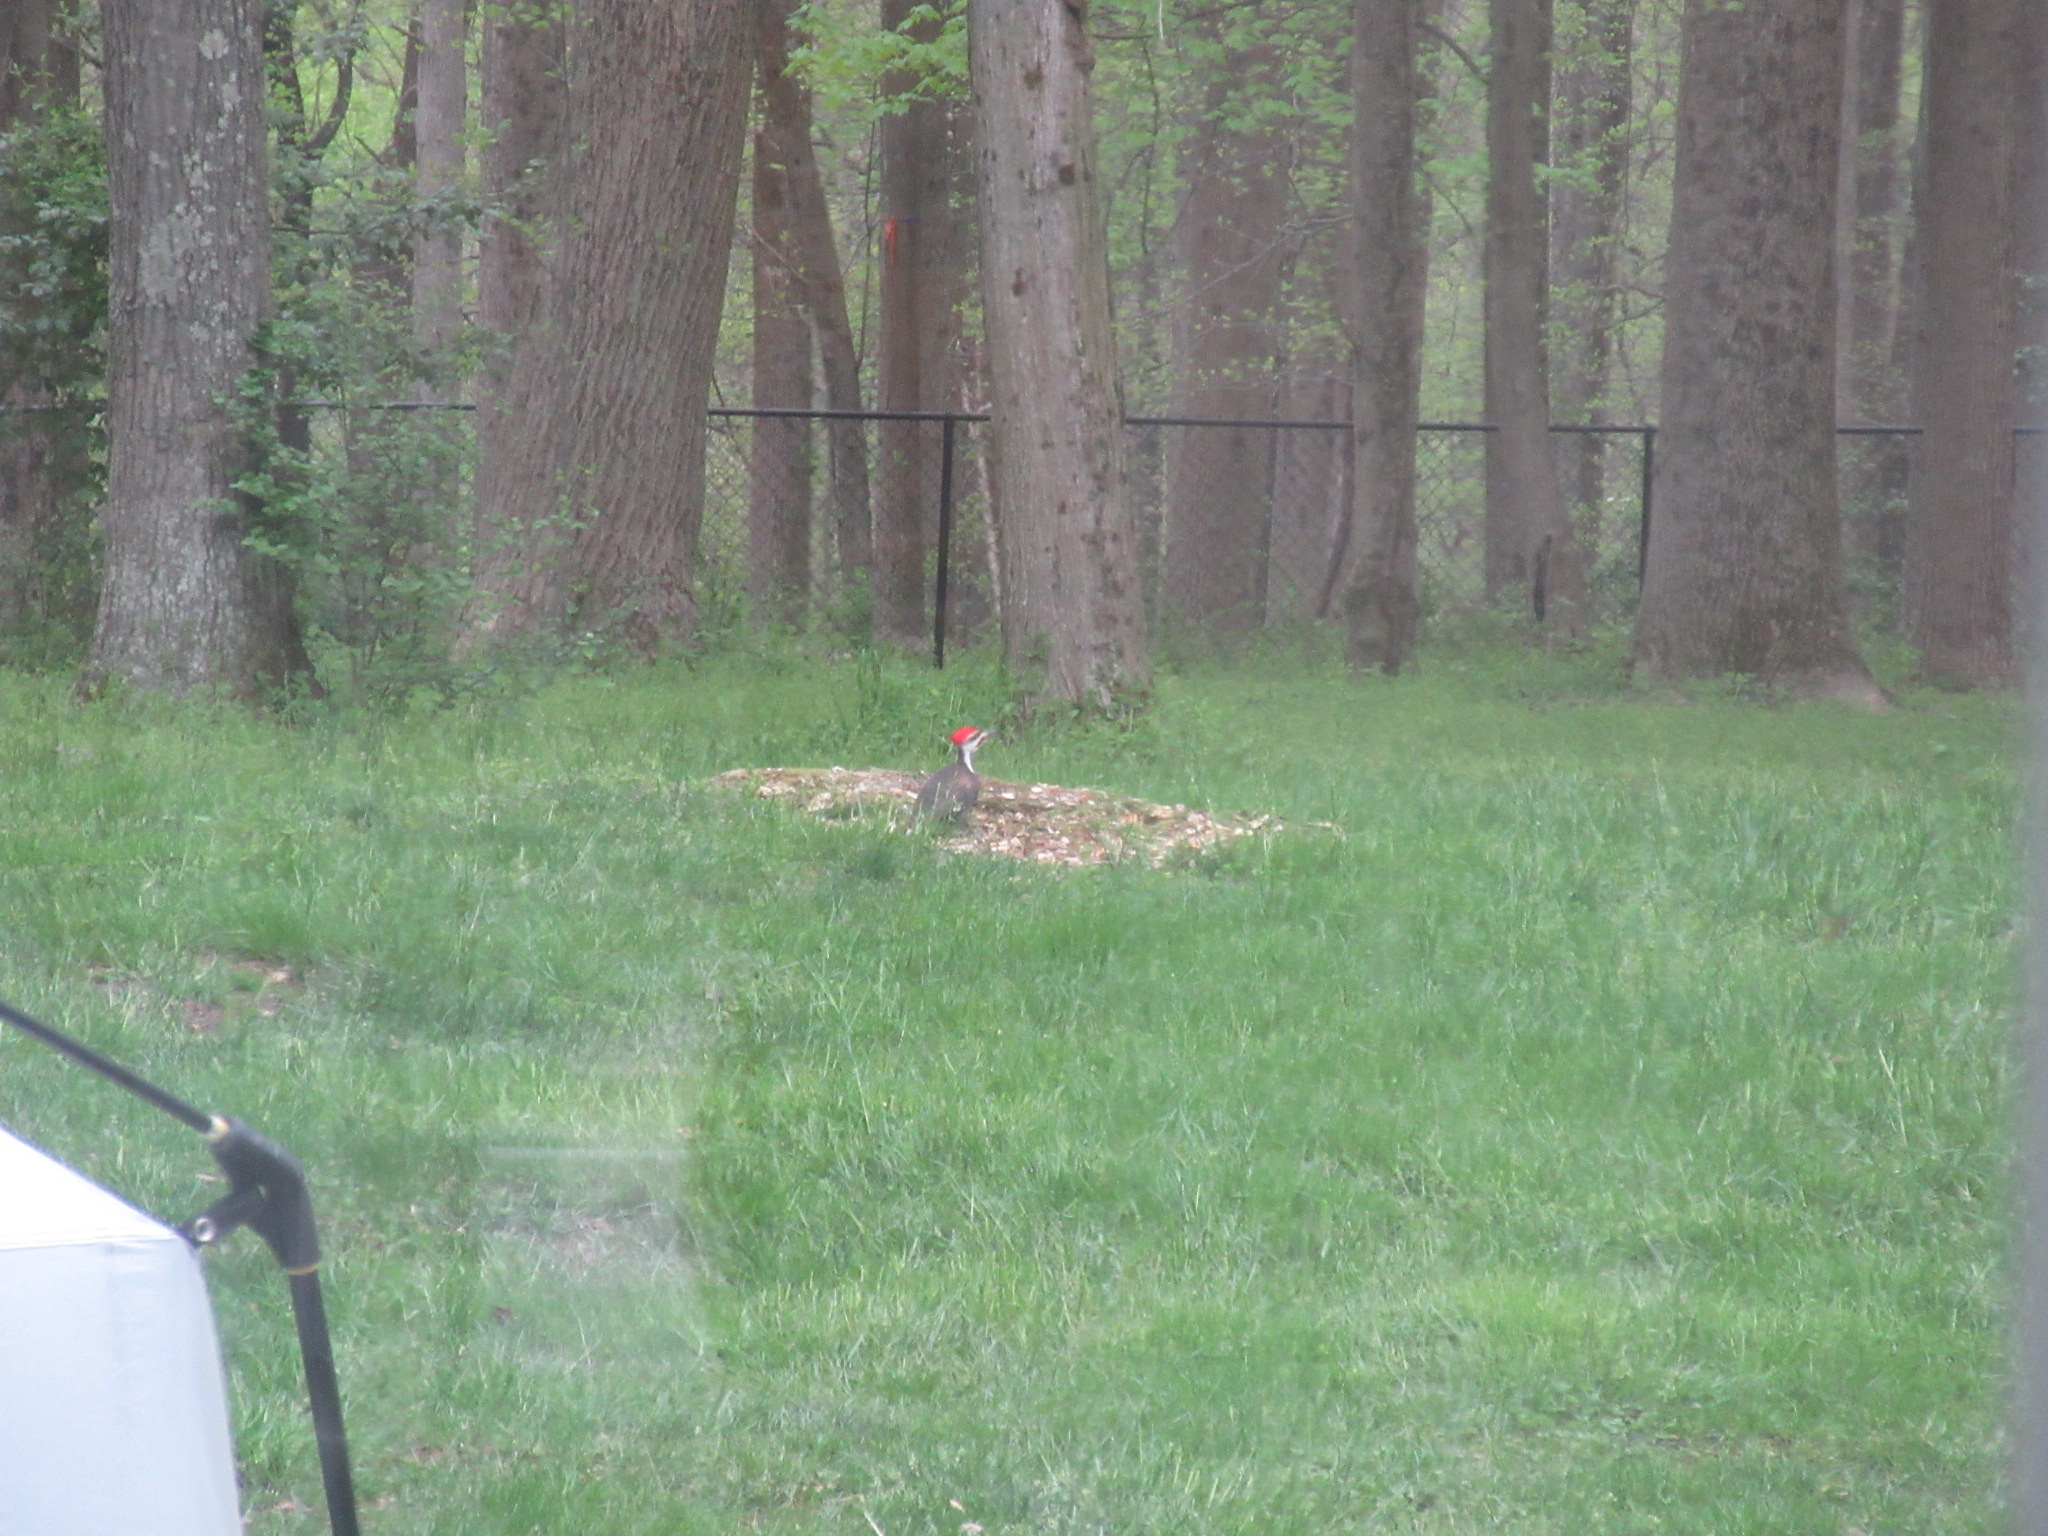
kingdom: Animalia
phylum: Chordata
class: Aves
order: Piciformes
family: Picidae
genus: Dryocopus
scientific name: Dryocopus pileatus
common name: Pileated woodpecker
